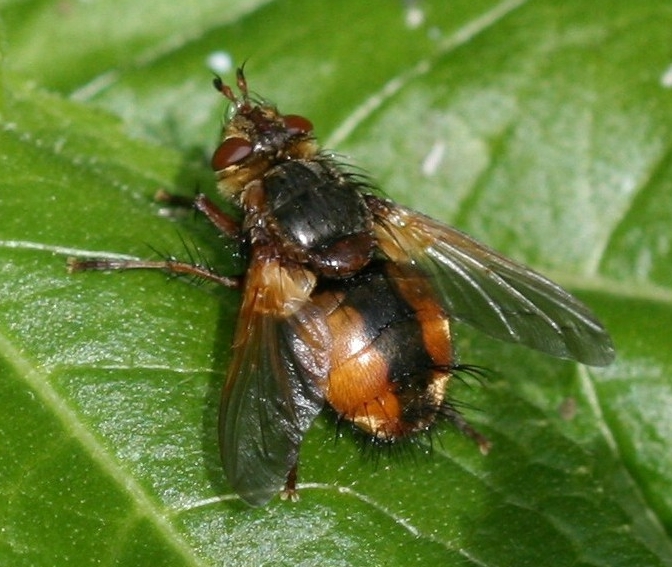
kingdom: Animalia
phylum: Arthropoda
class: Insecta
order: Diptera
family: Tachinidae
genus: Tachina
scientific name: Tachina fera
